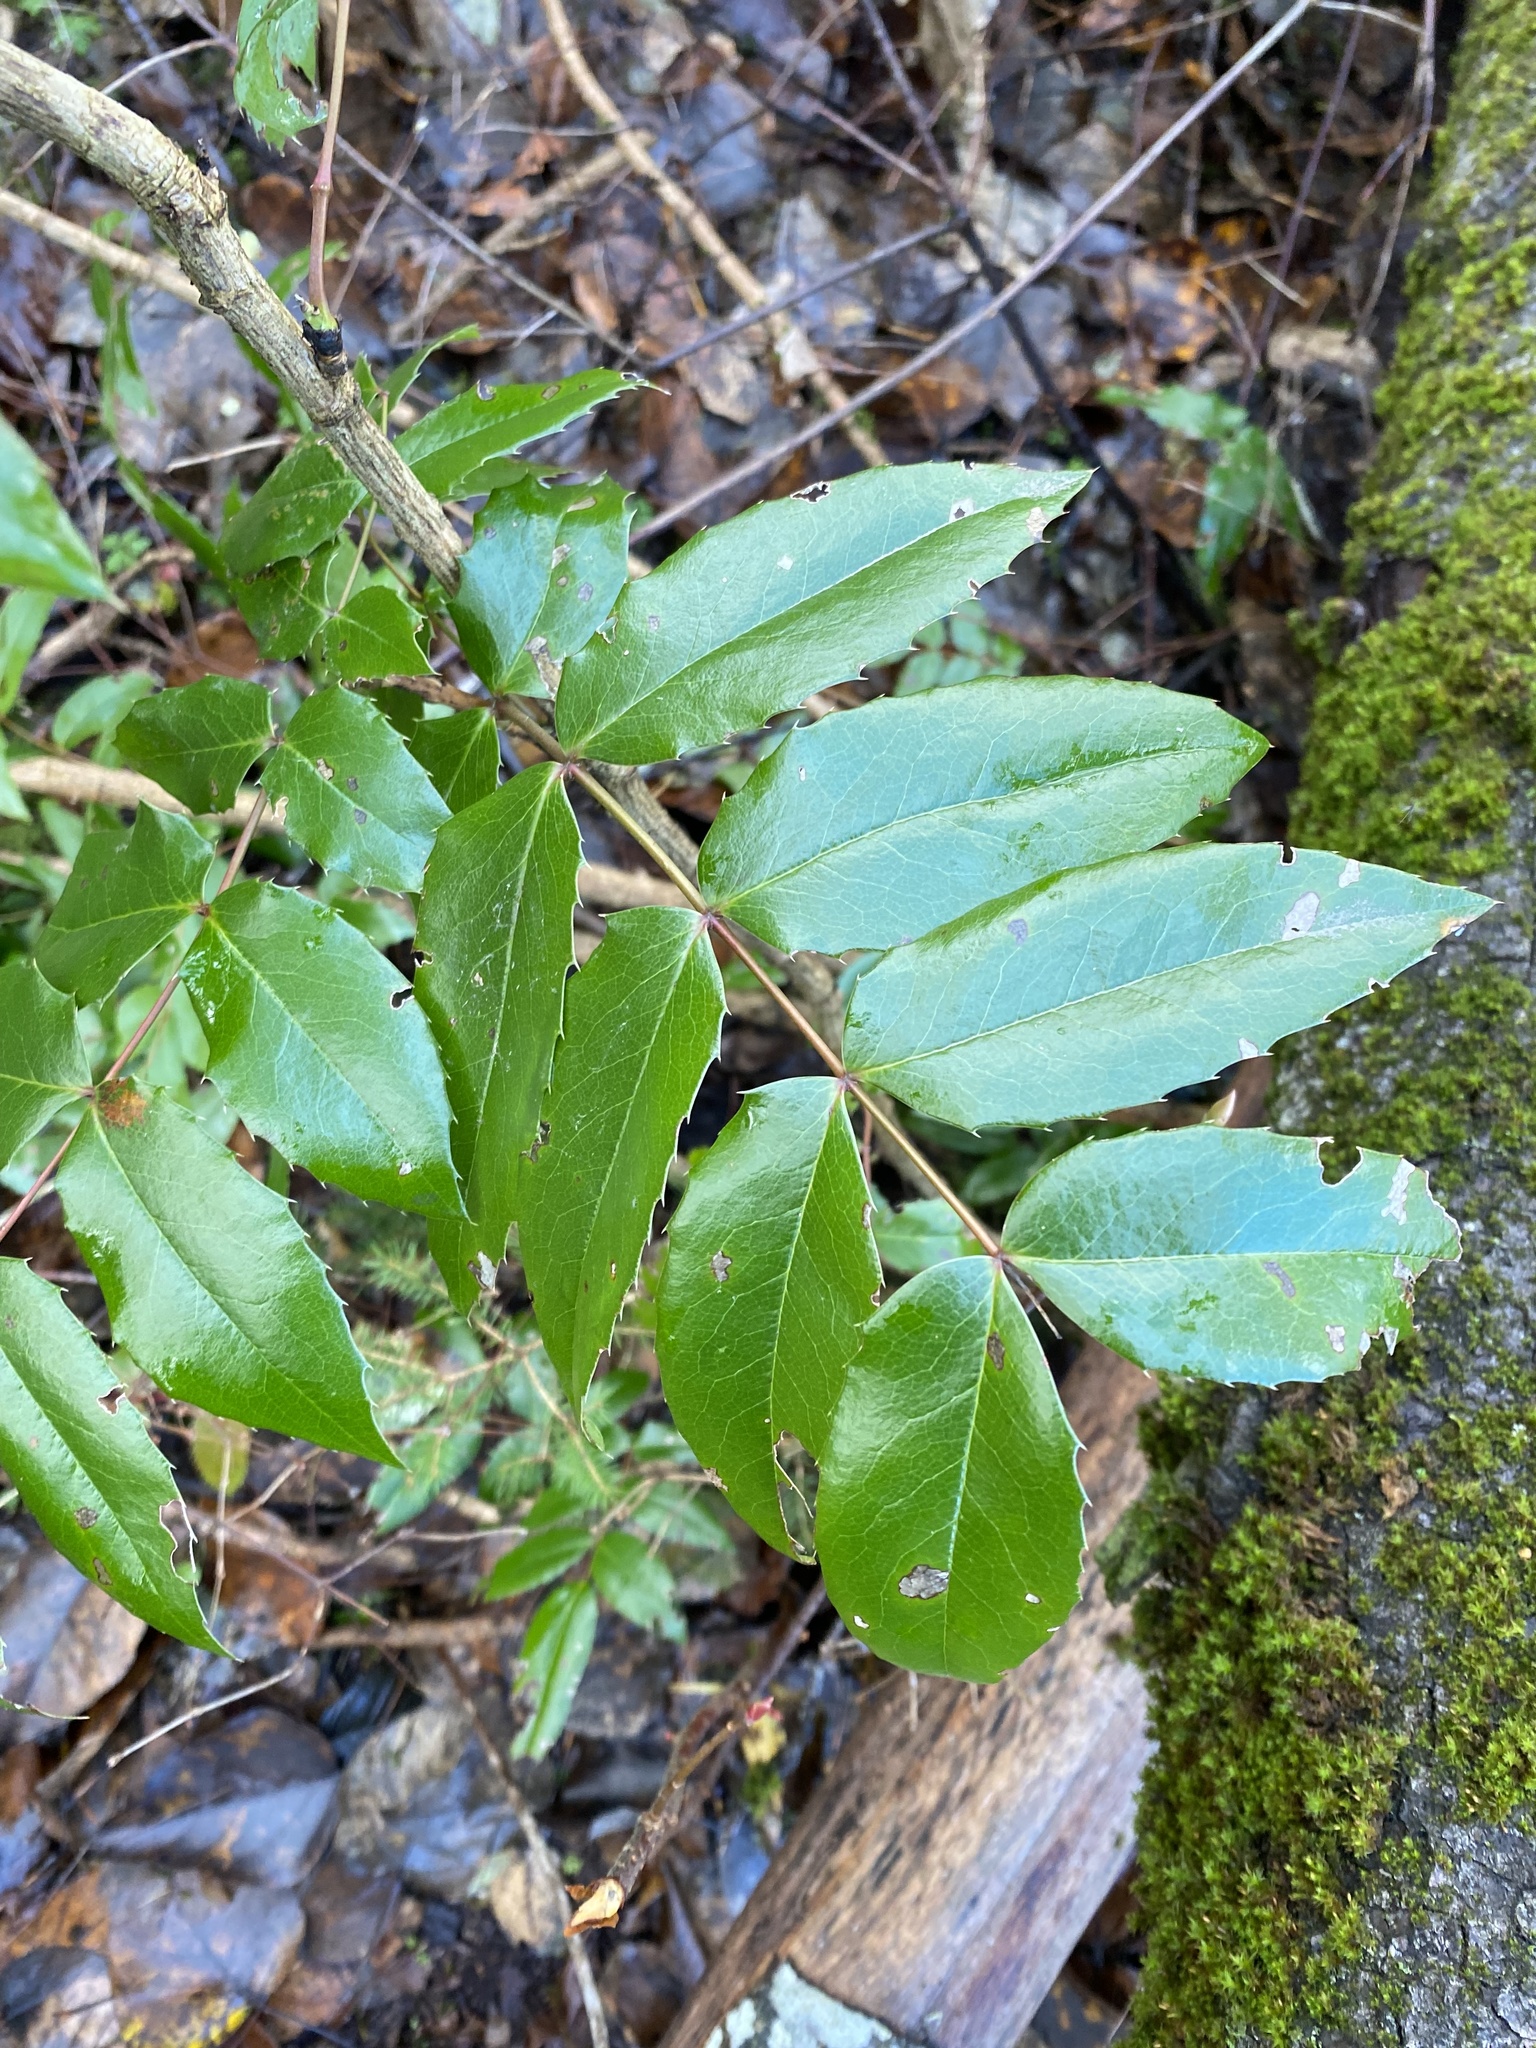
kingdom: Plantae
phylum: Tracheophyta
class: Magnoliopsida
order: Ranunculales
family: Berberidaceae
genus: Mahonia
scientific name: Mahonia nervosa
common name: Cascade oregon-grape
